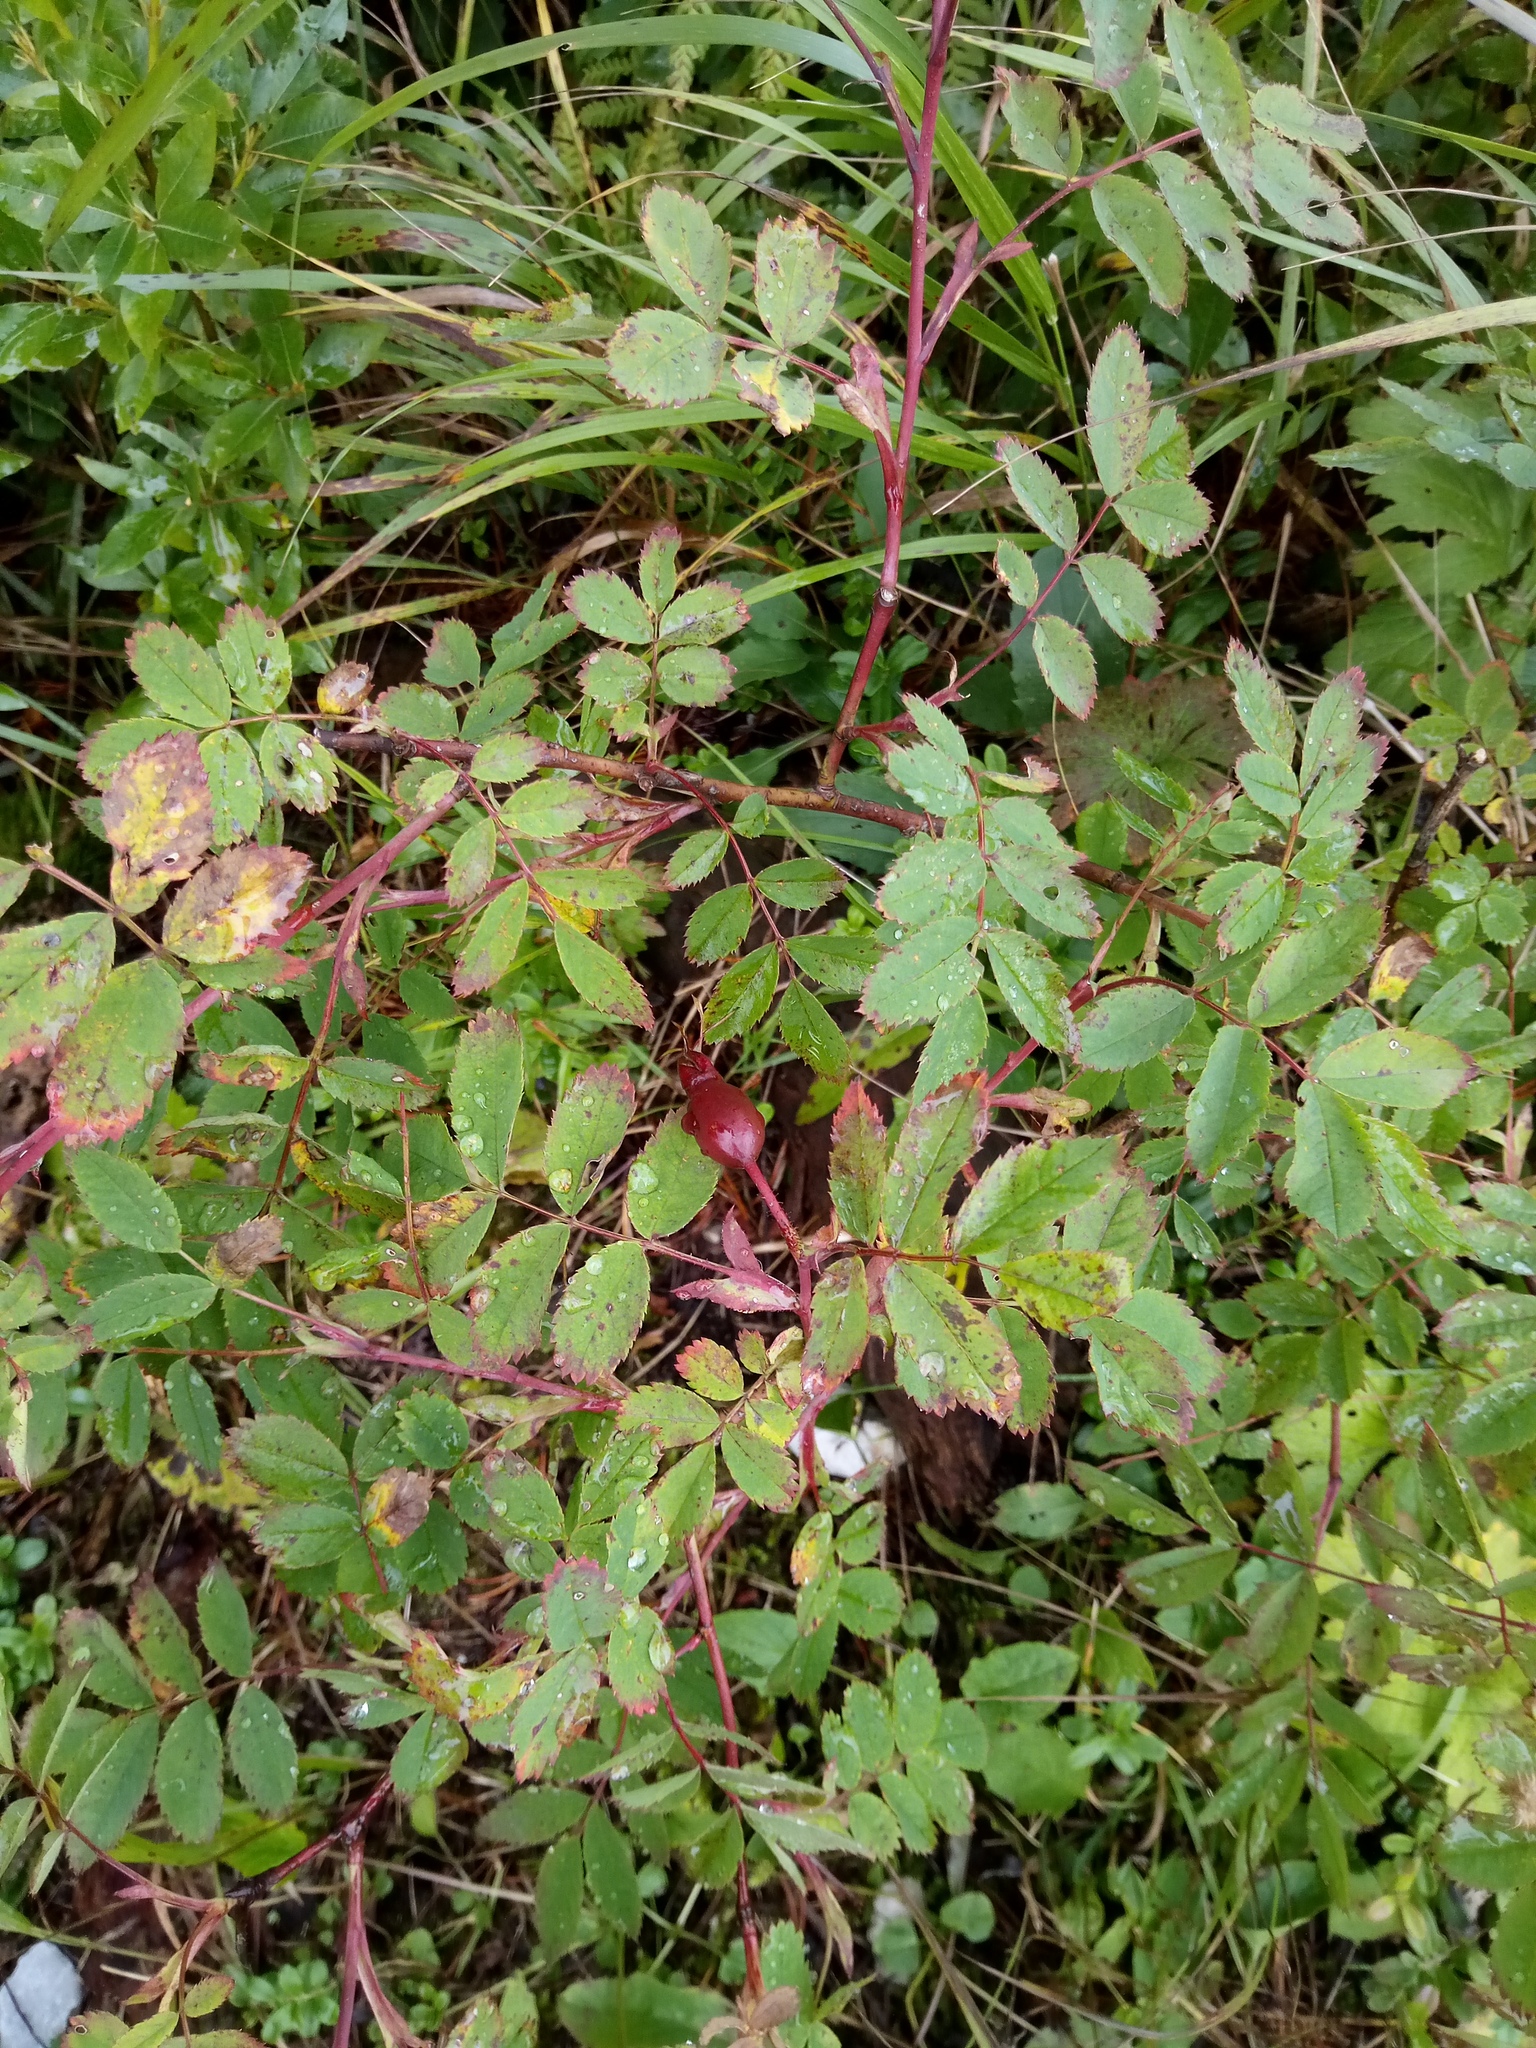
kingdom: Plantae
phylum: Tracheophyta
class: Magnoliopsida
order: Rosales
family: Rosaceae
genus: Rosa
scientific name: Rosa pendulina
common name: Alpine rose
